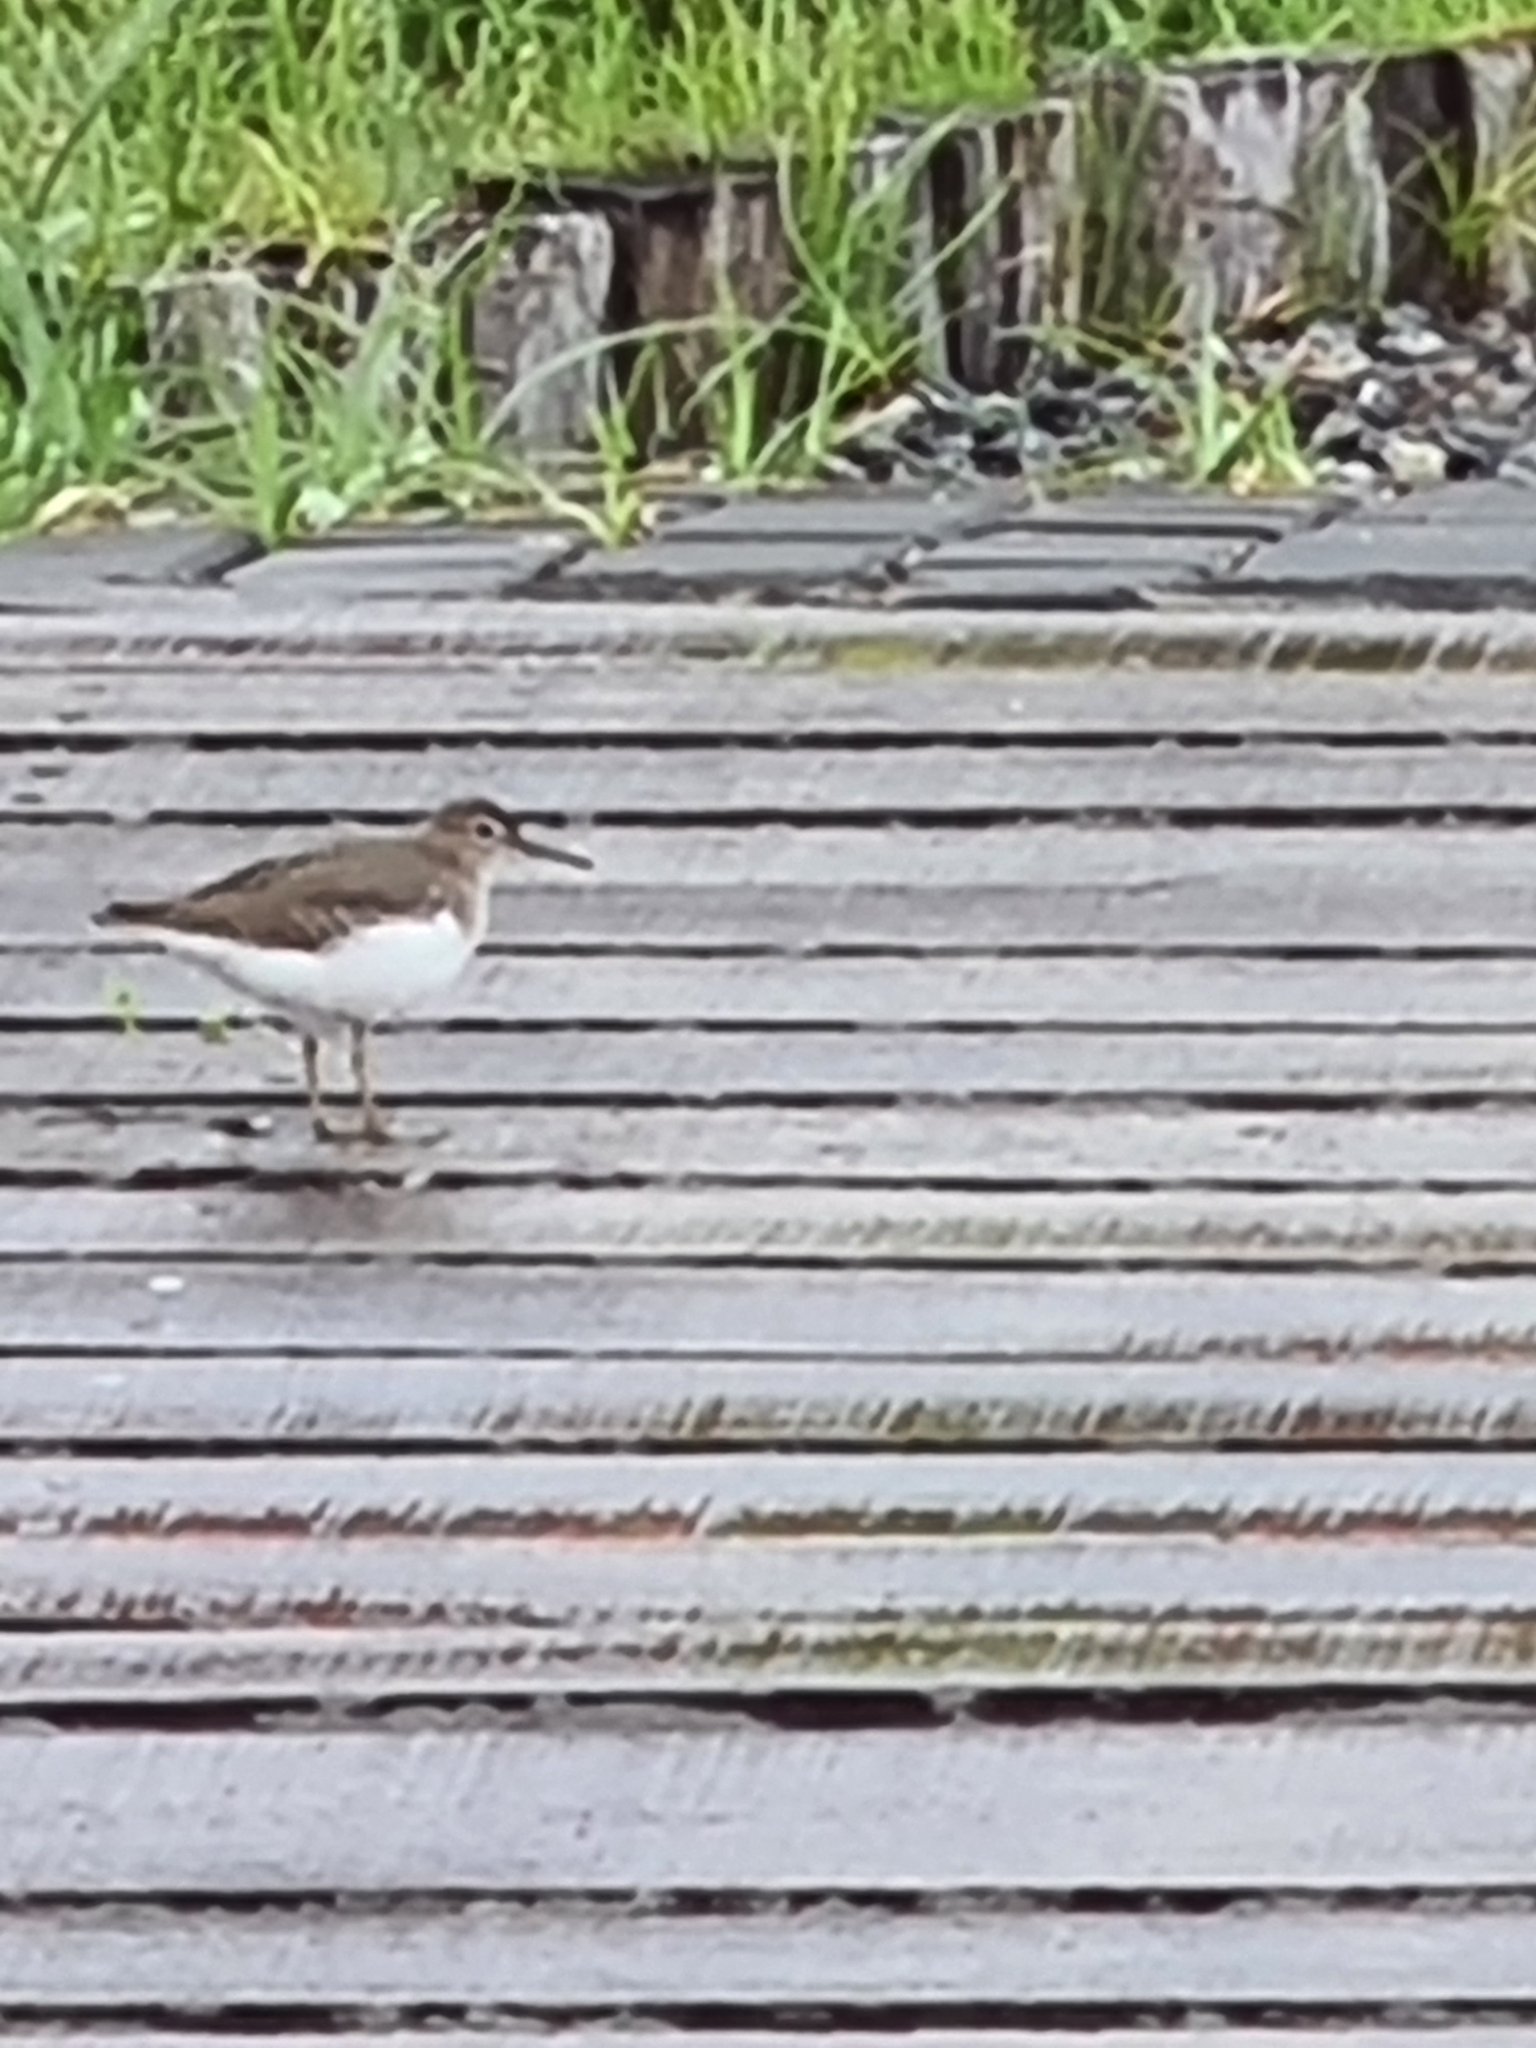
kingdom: Animalia
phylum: Chordata
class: Aves
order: Charadriiformes
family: Scolopacidae
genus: Actitis
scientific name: Actitis macularius
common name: Spotted sandpiper
